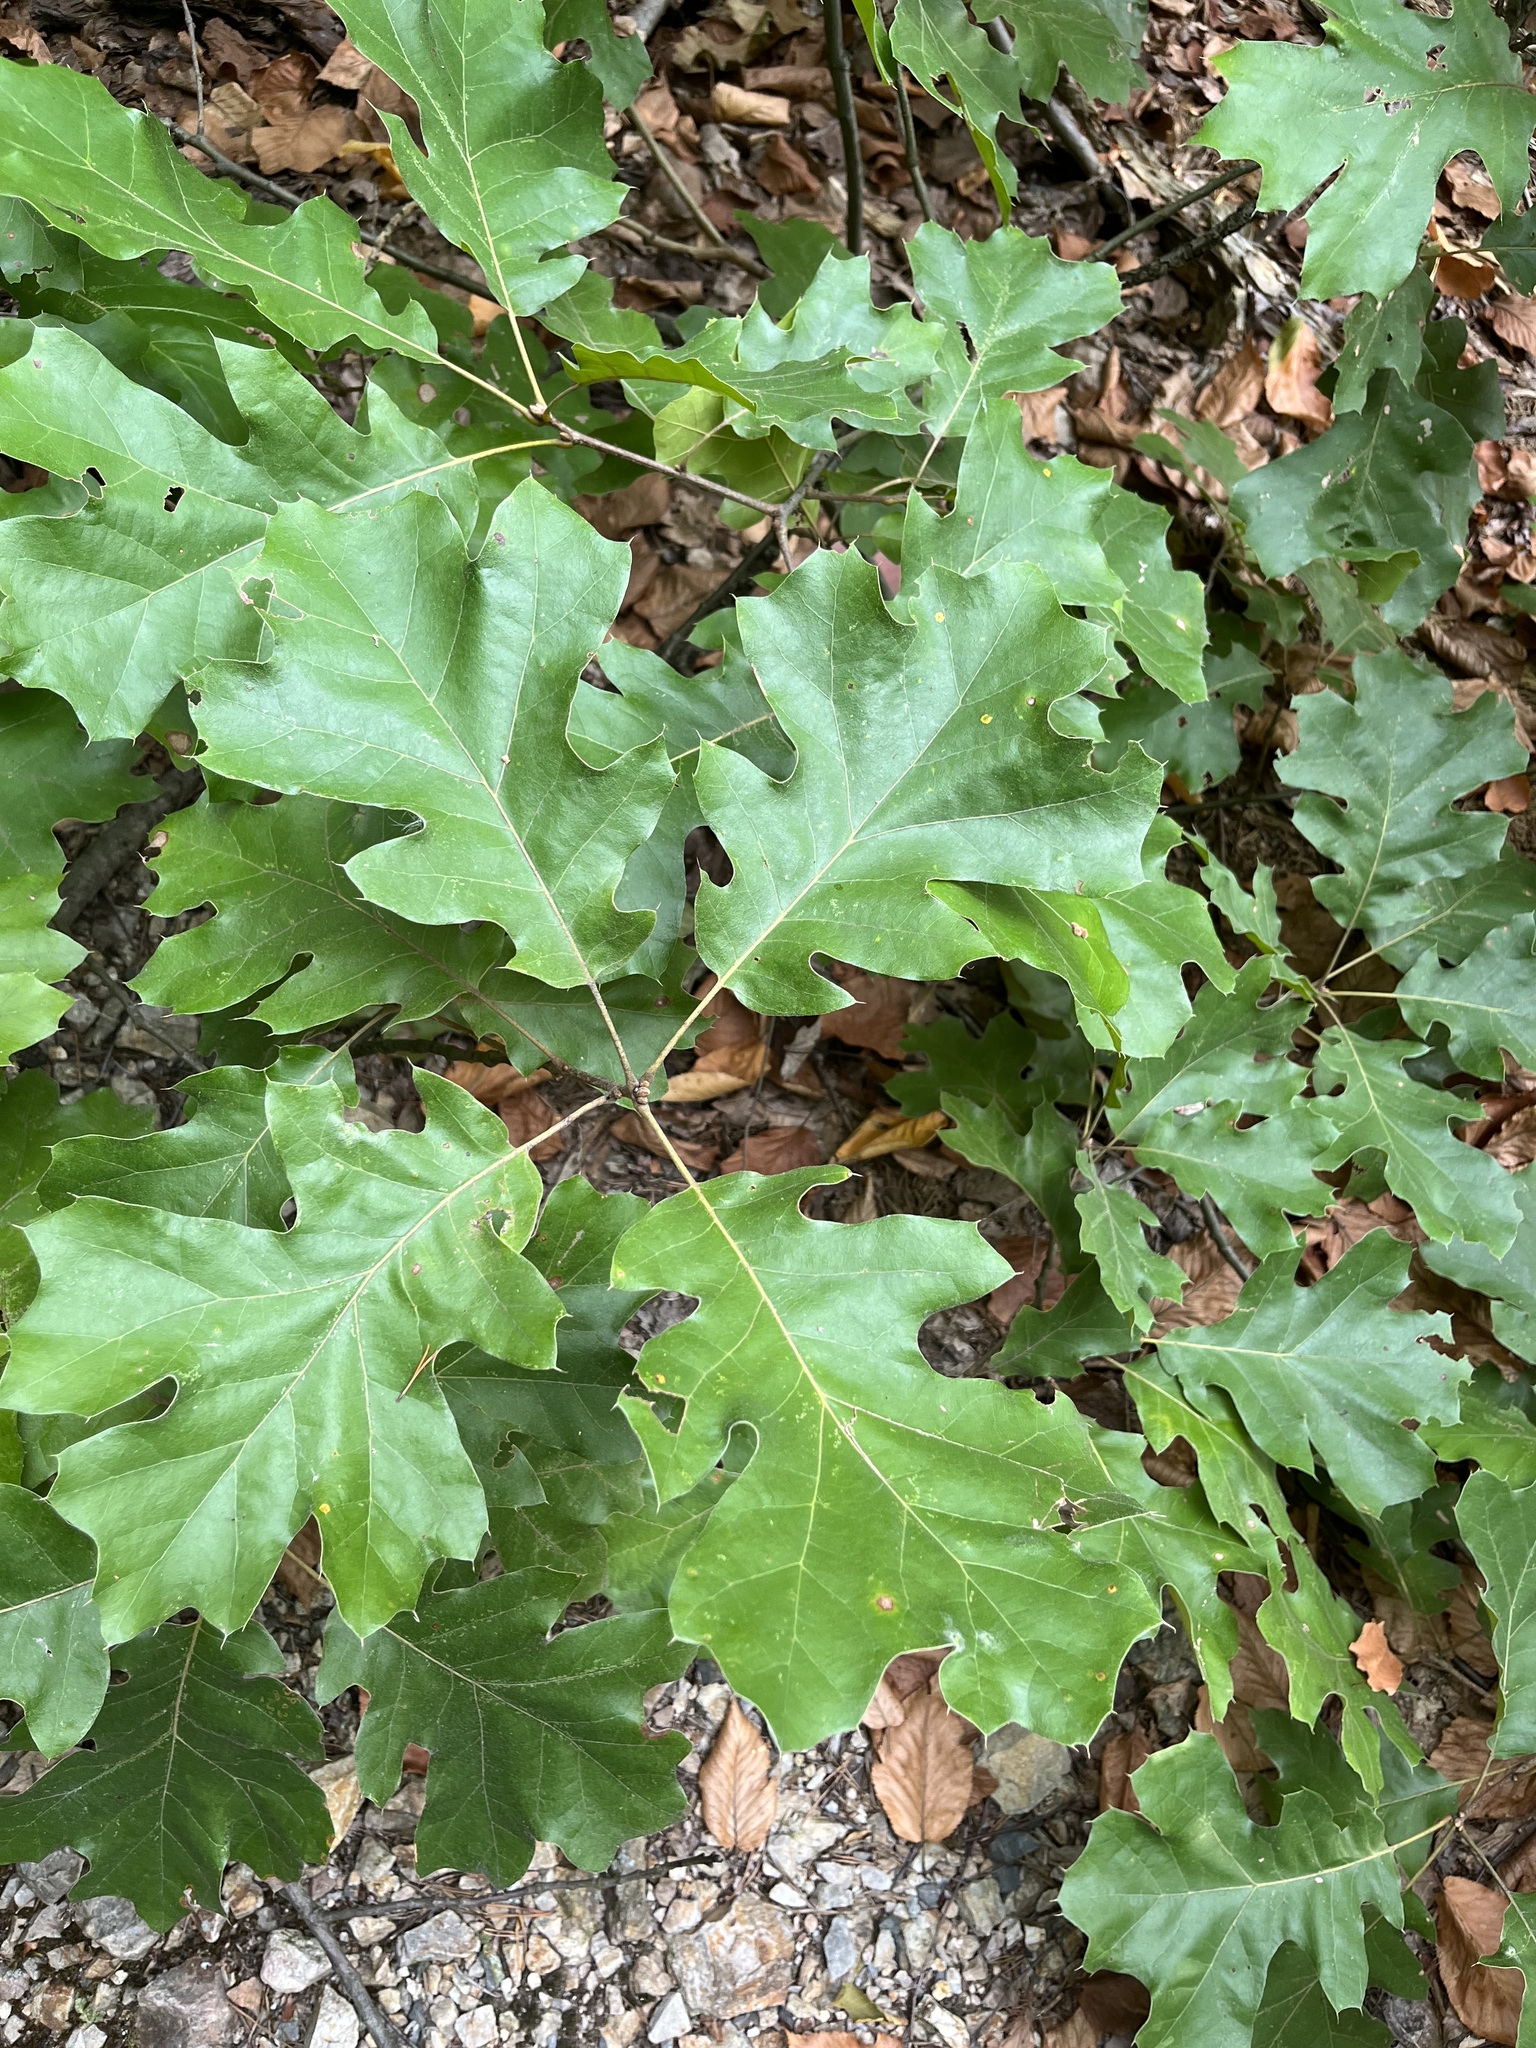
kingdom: Plantae
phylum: Tracheophyta
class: Magnoliopsida
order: Fagales
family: Fagaceae
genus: Quercus
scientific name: Quercus velutina
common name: Black oak
